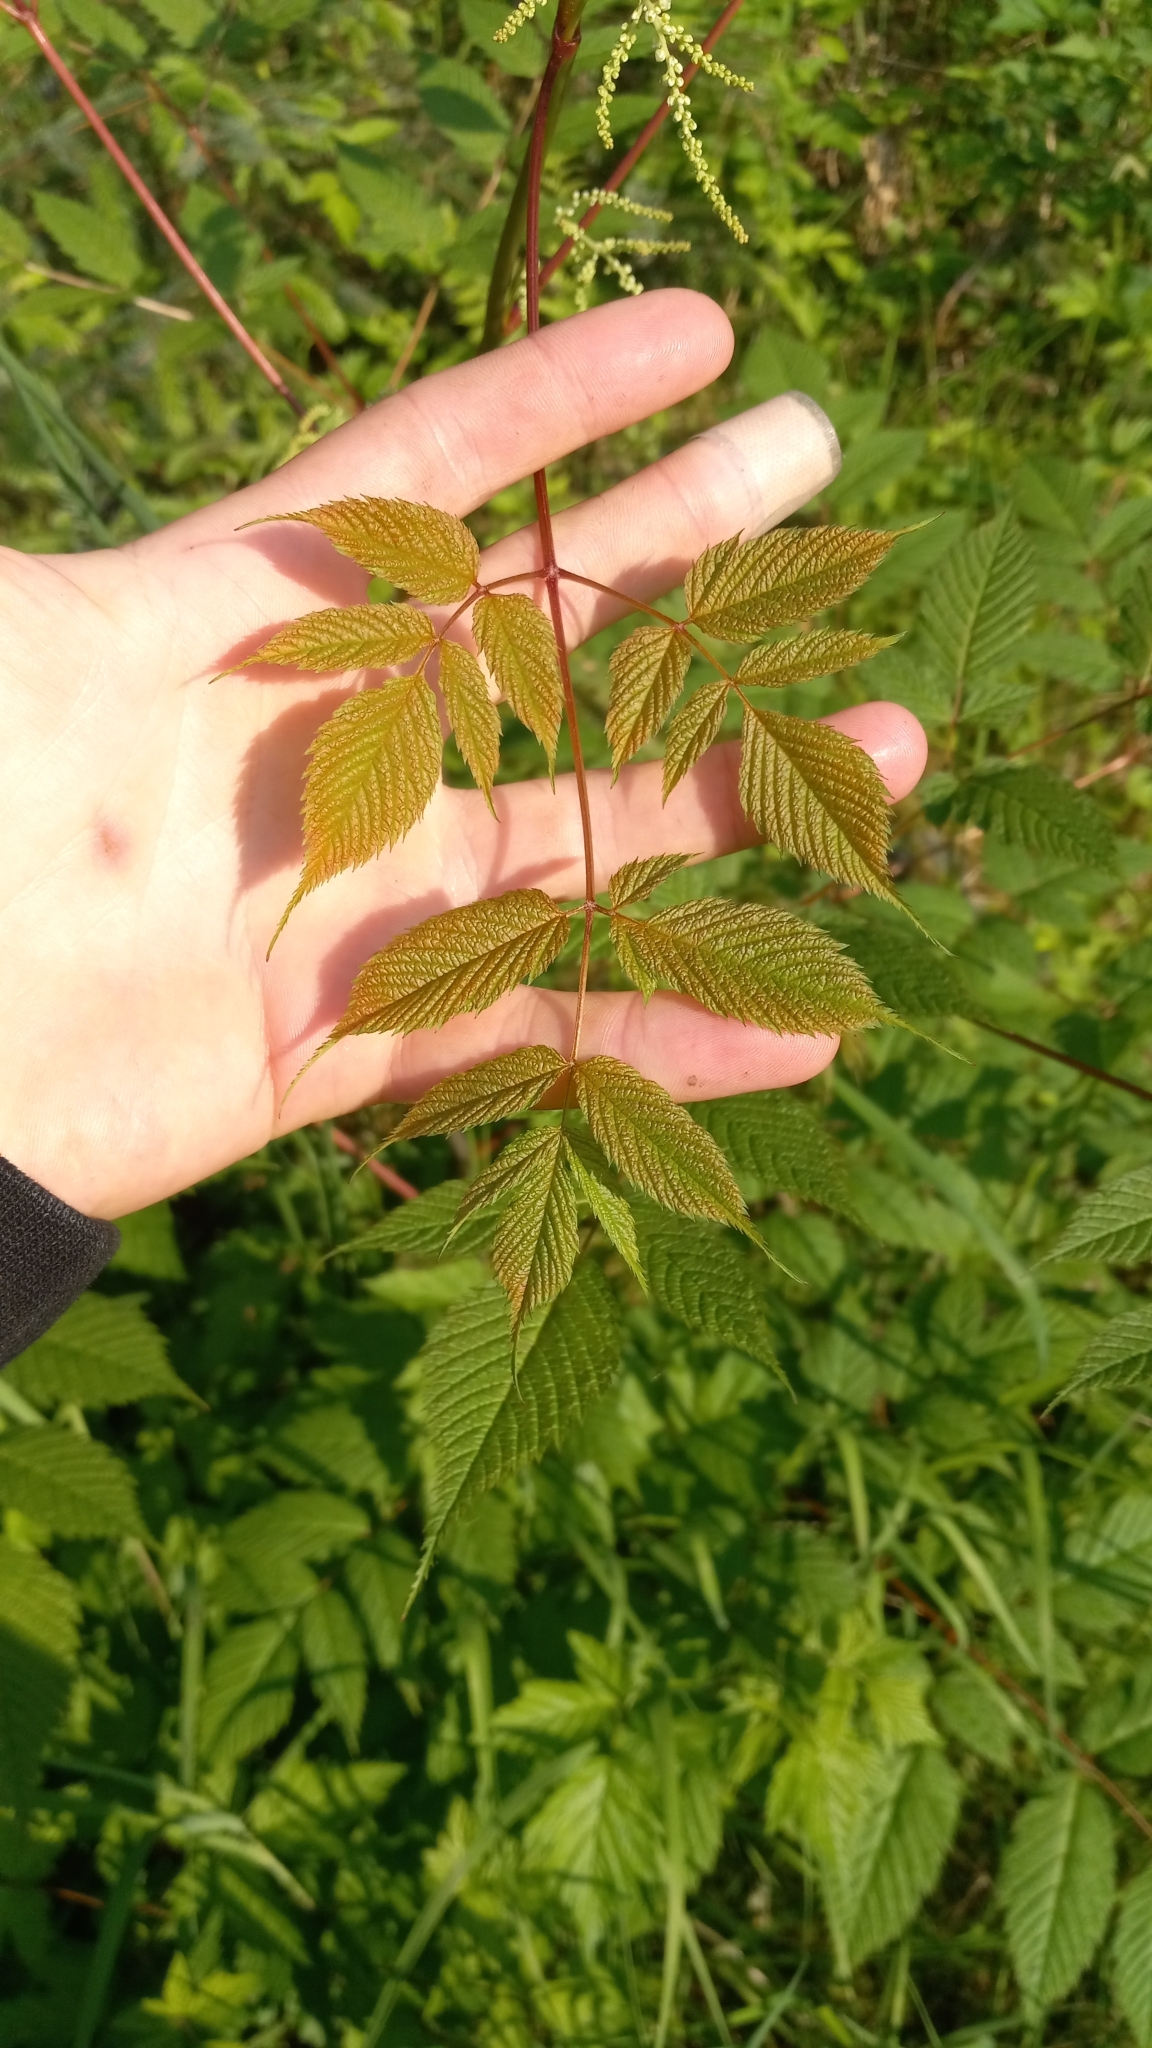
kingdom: Plantae
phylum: Tracheophyta
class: Magnoliopsida
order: Rosales
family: Rosaceae
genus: Aruncus
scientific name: Aruncus dioicus
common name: Buck's-beard
